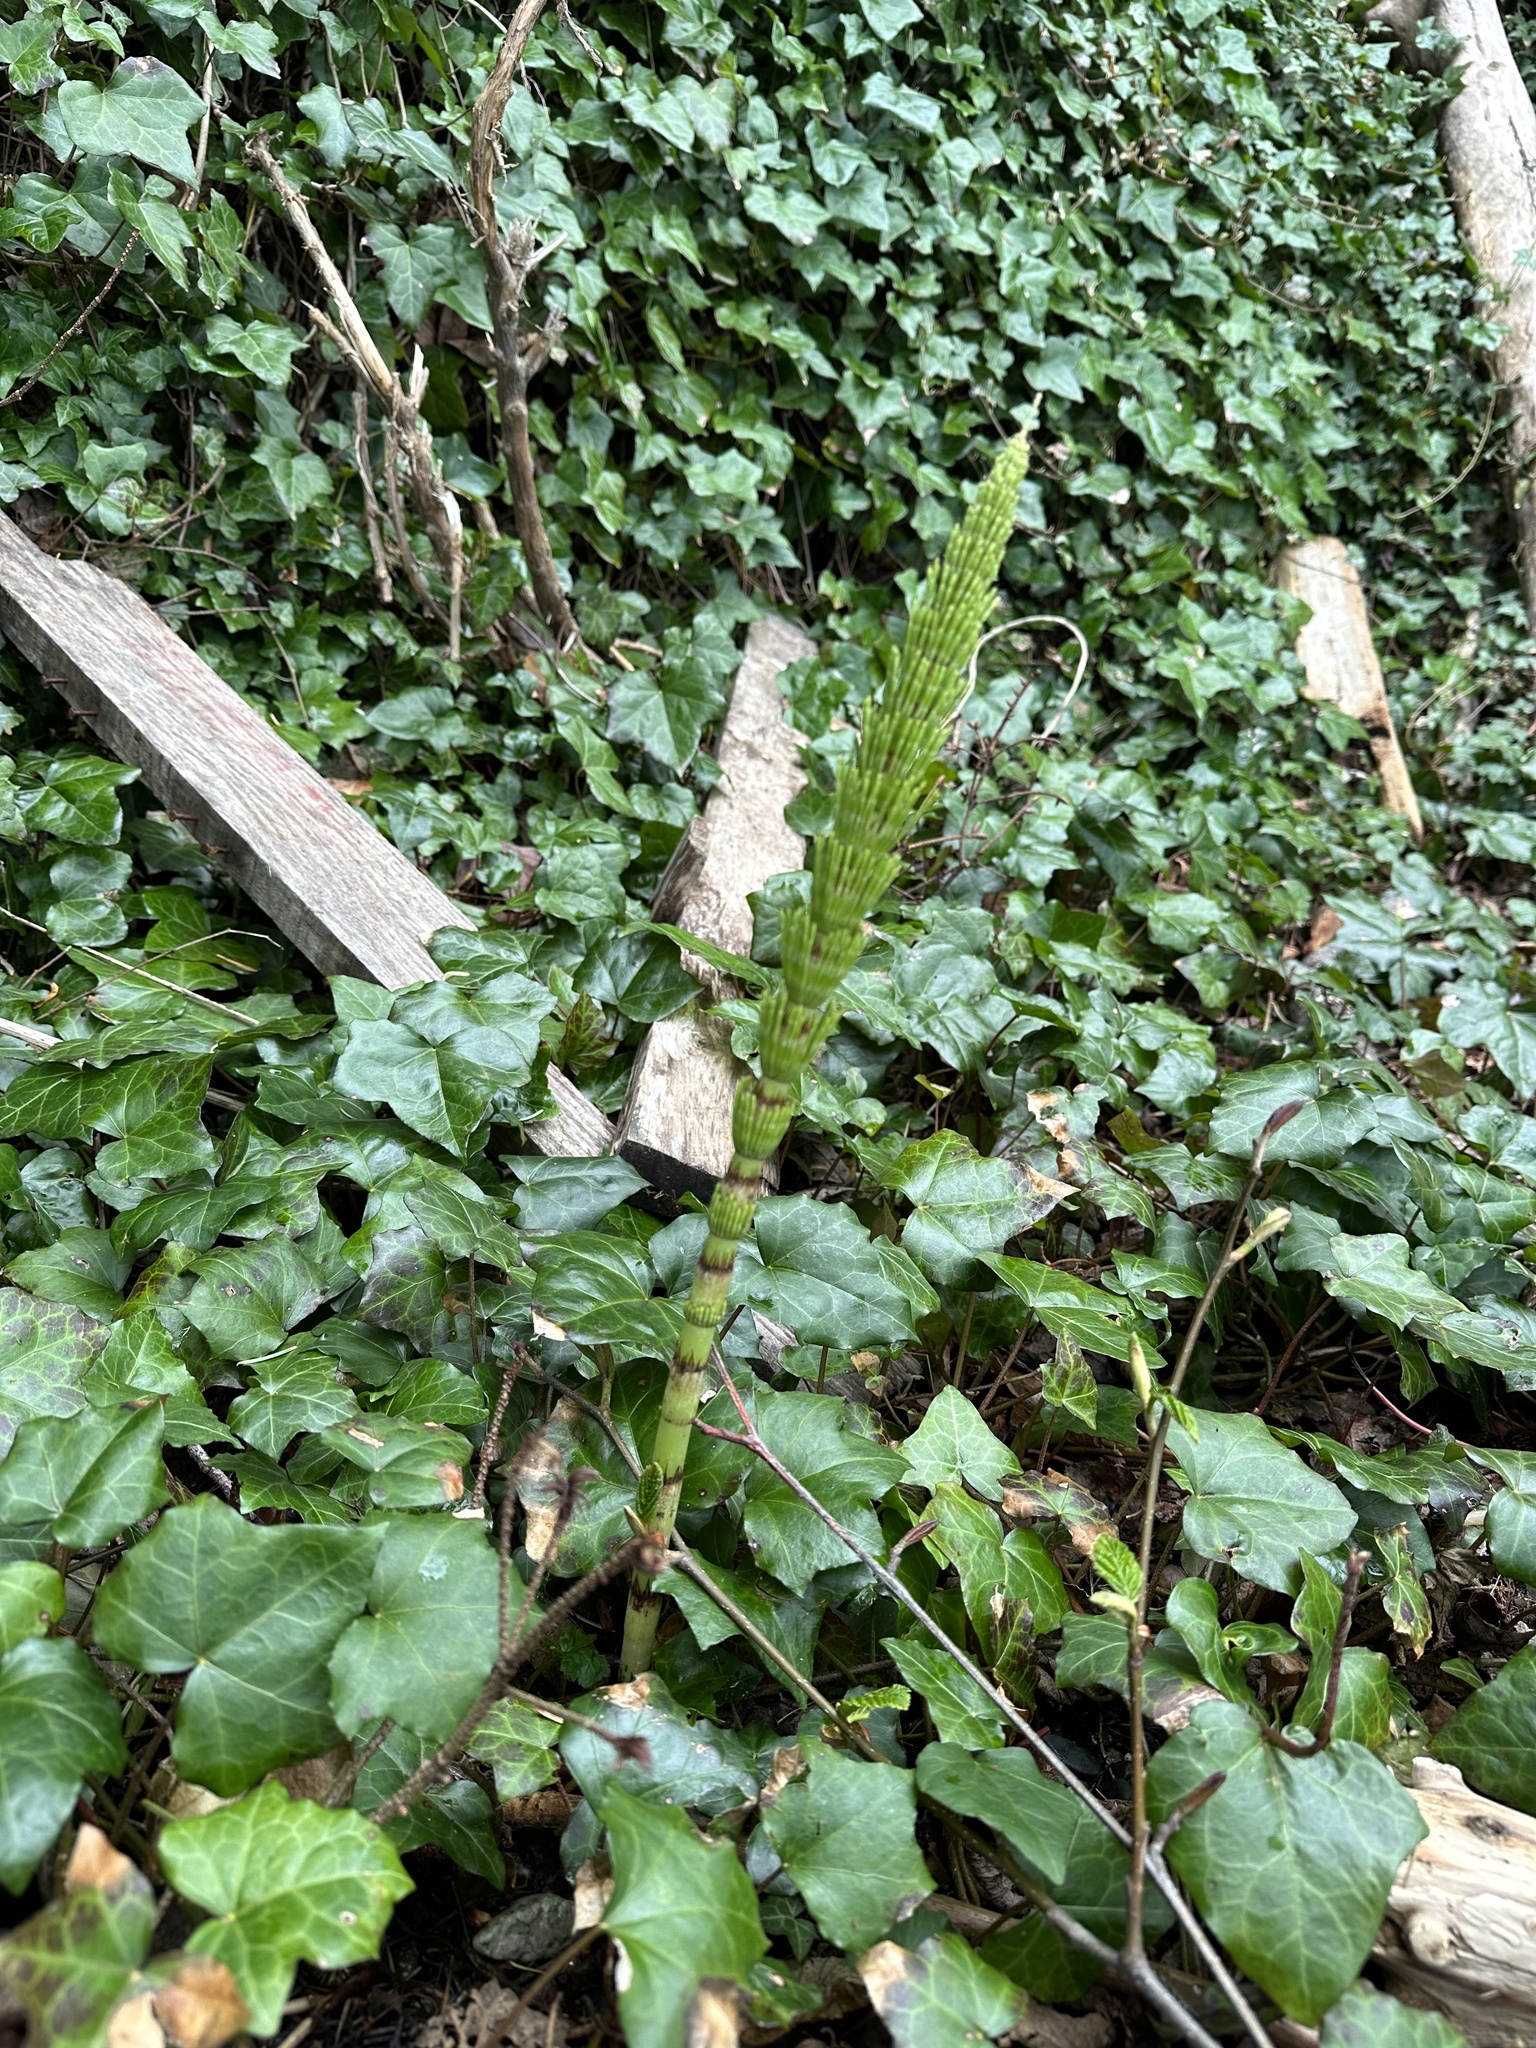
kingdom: Plantae
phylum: Tracheophyta
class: Polypodiopsida
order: Equisetales
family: Equisetaceae
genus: Equisetum
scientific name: Equisetum telmateia
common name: Great horsetail
